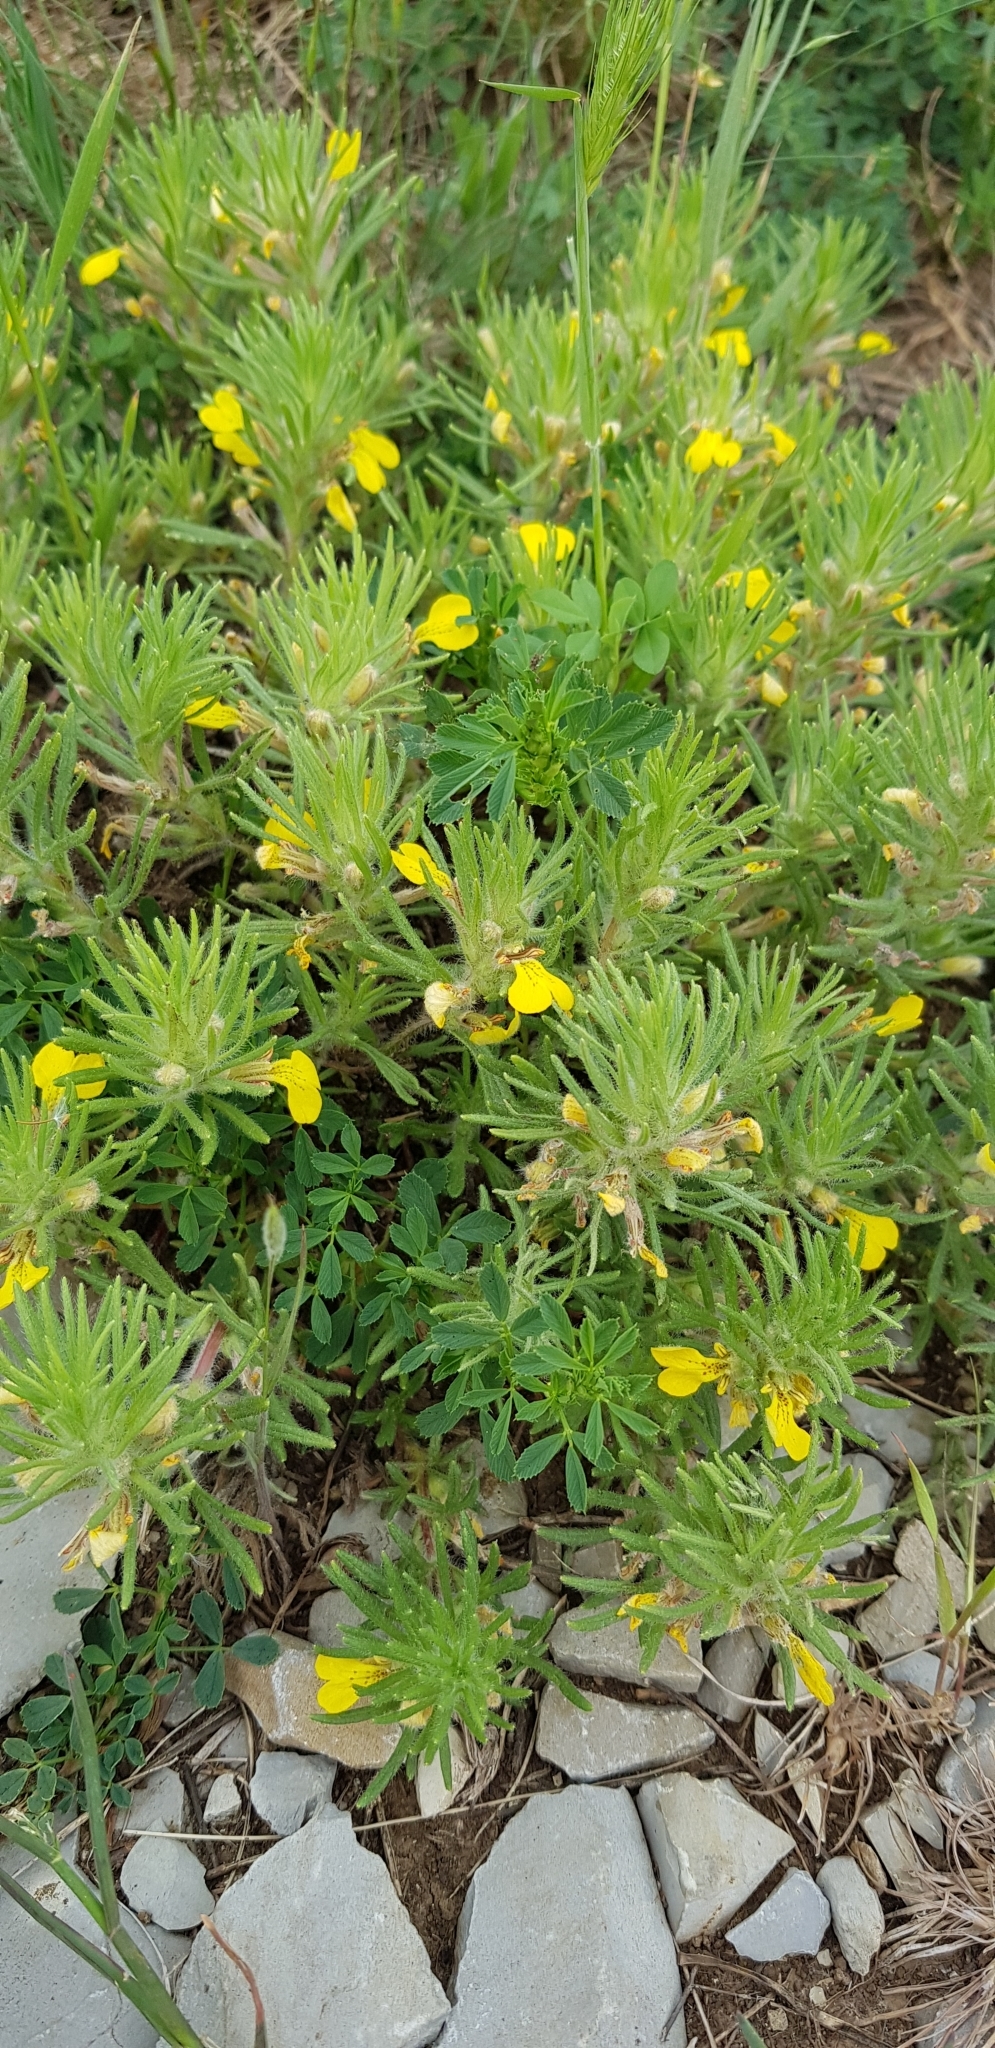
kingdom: Plantae
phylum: Tracheophyta
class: Magnoliopsida
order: Lamiales
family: Lamiaceae
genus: Ajuga
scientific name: Ajuga chamaepitys
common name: Ground-pine
